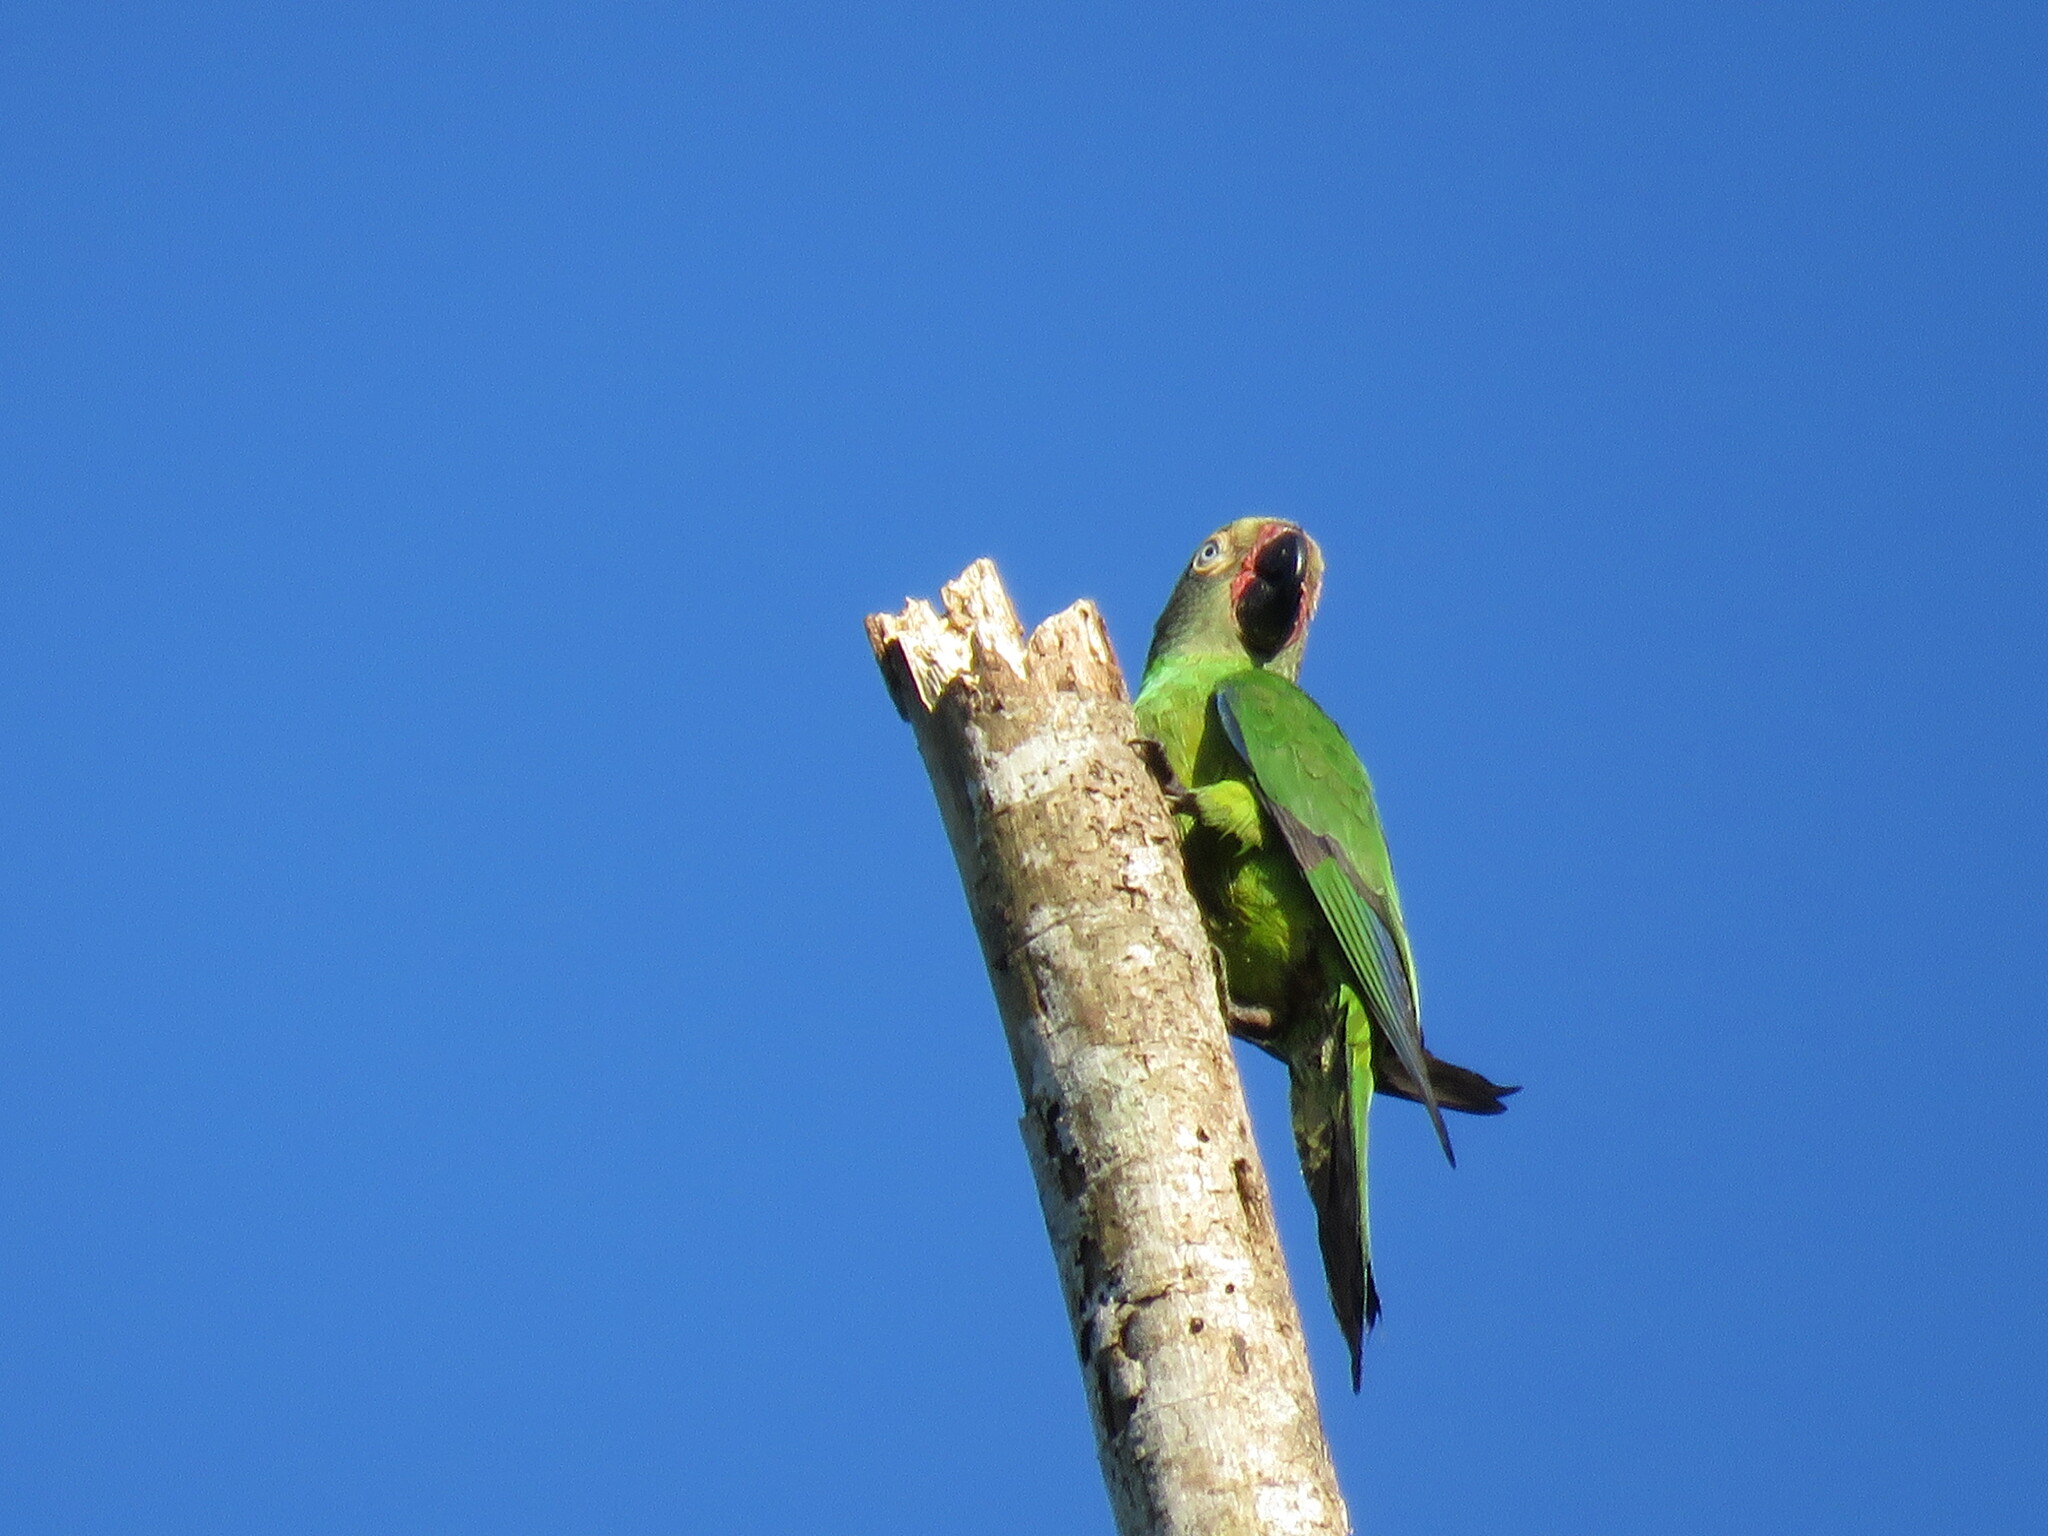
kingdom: Animalia
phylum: Chordata
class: Aves
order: Psittaciformes
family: Psittacidae
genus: Aratinga
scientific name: Aratinga weddellii
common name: Dusky-headed parakeet
